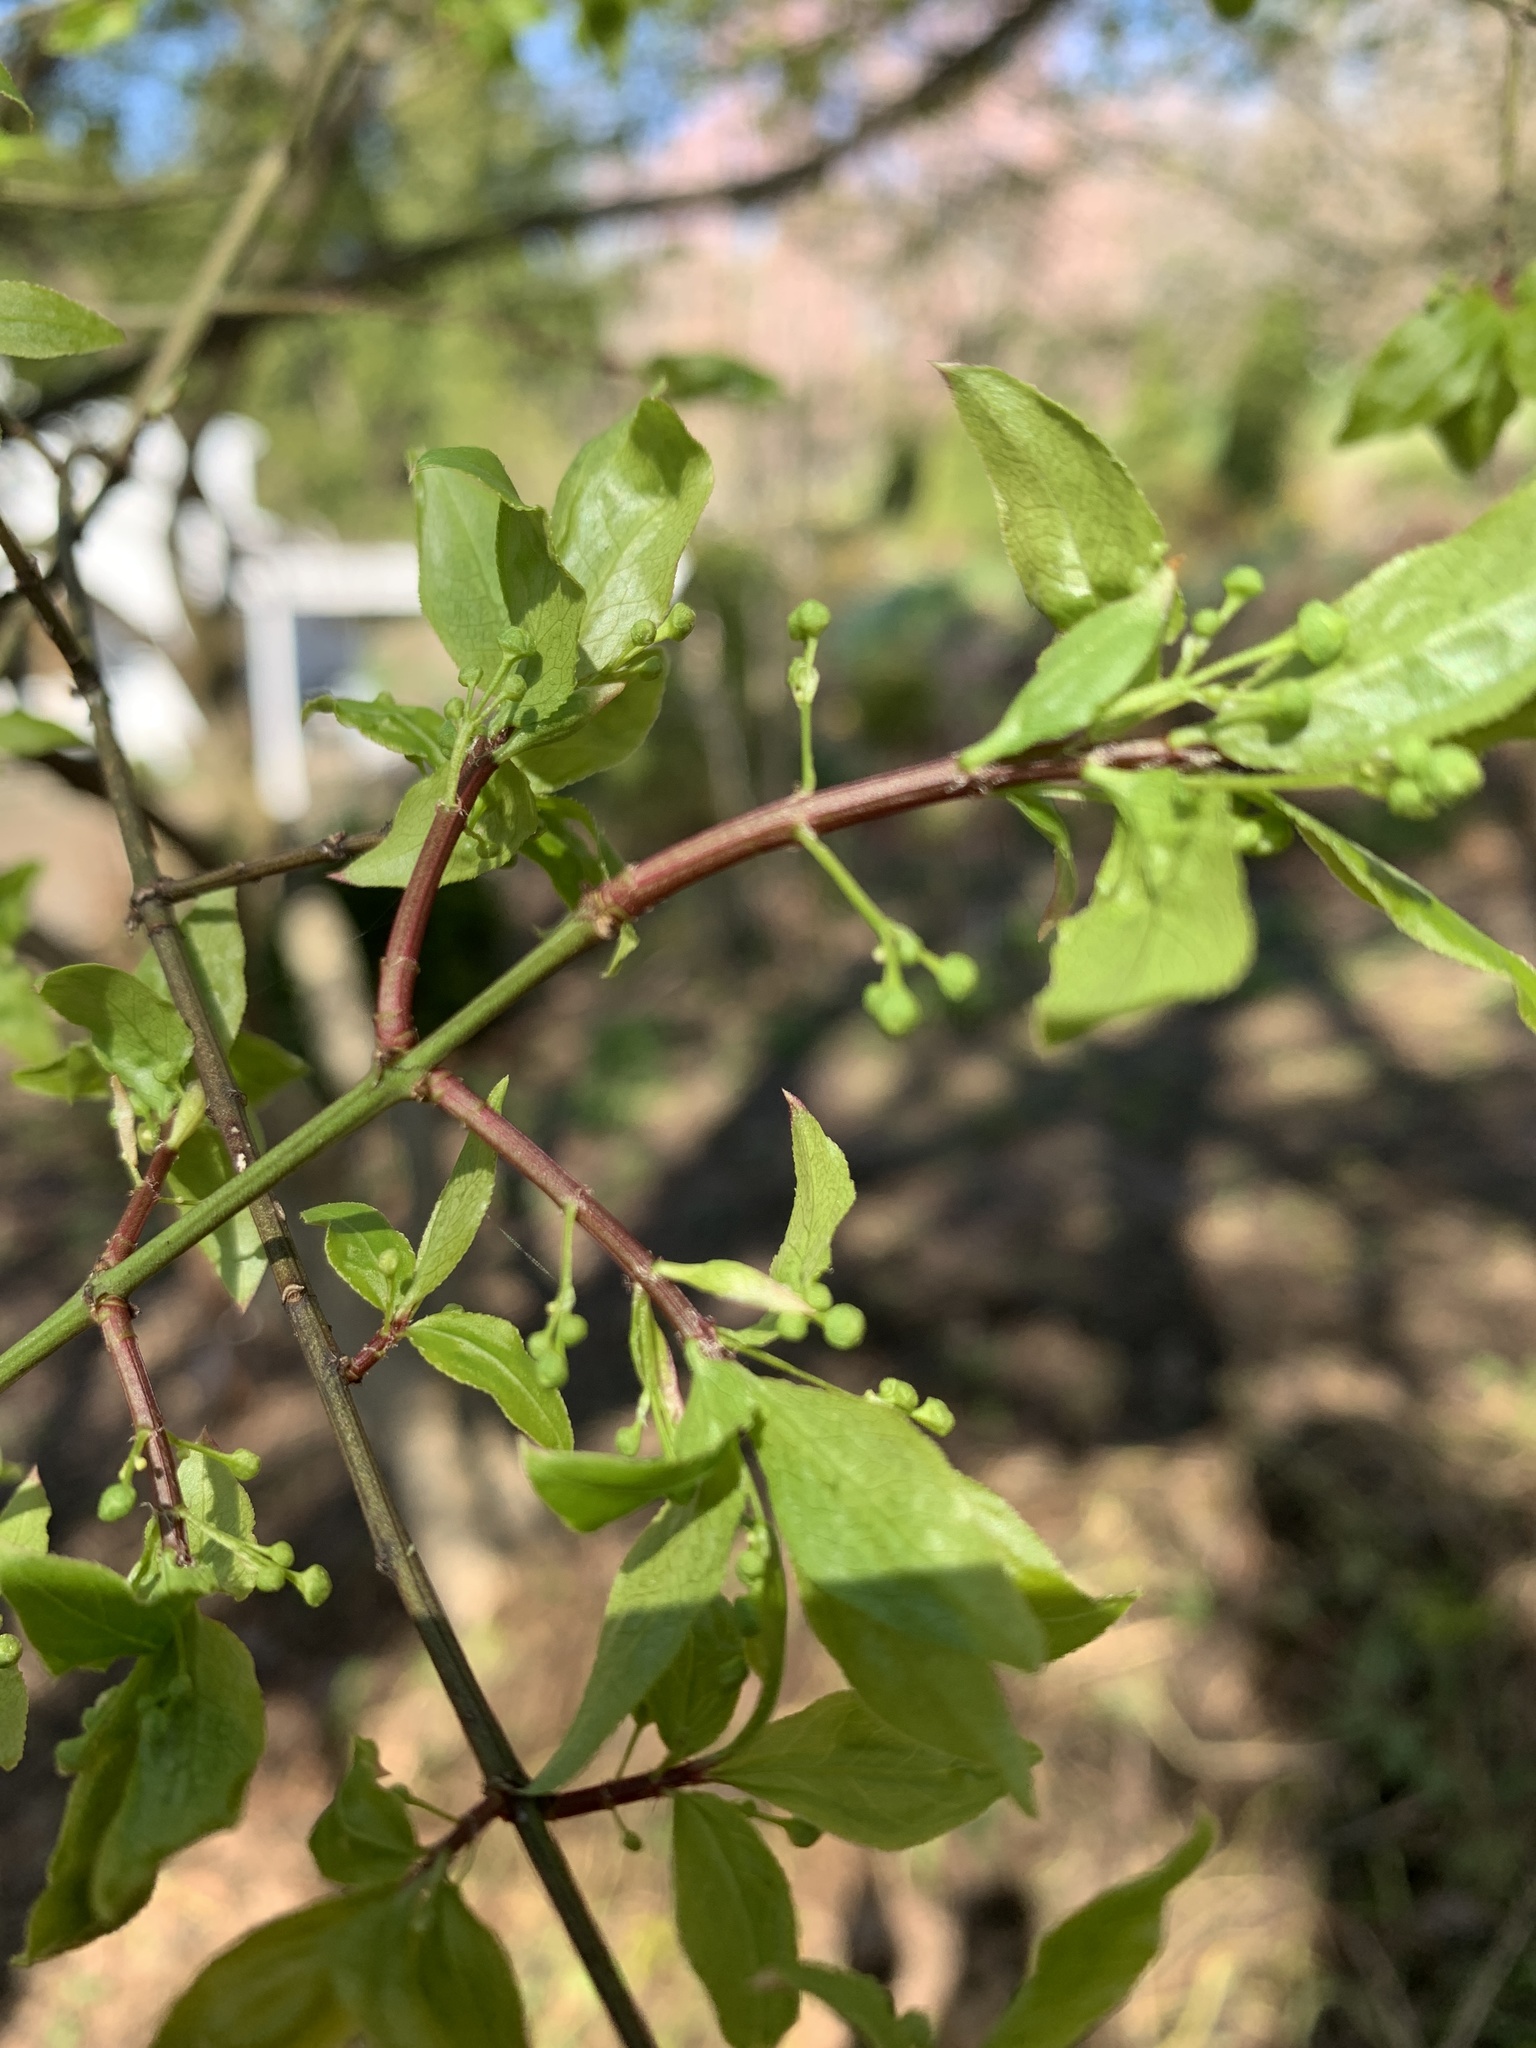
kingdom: Plantae
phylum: Tracheophyta
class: Magnoliopsida
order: Celastrales
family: Celastraceae
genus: Euonymus
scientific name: Euonymus alatus
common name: Winged euonymus
